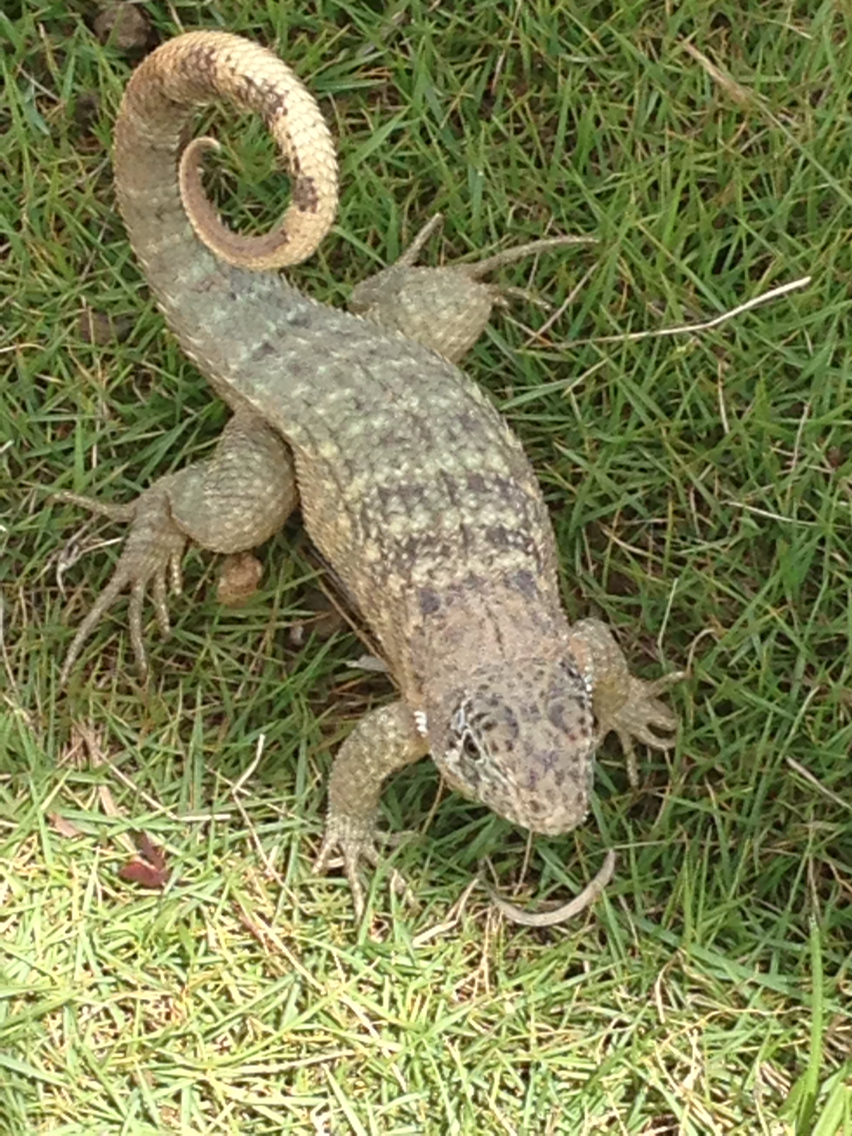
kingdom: Animalia
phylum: Chordata
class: Squamata
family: Leiocephalidae
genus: Leiocephalus
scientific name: Leiocephalus carinatus
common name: Northern curly-tailed lizard
